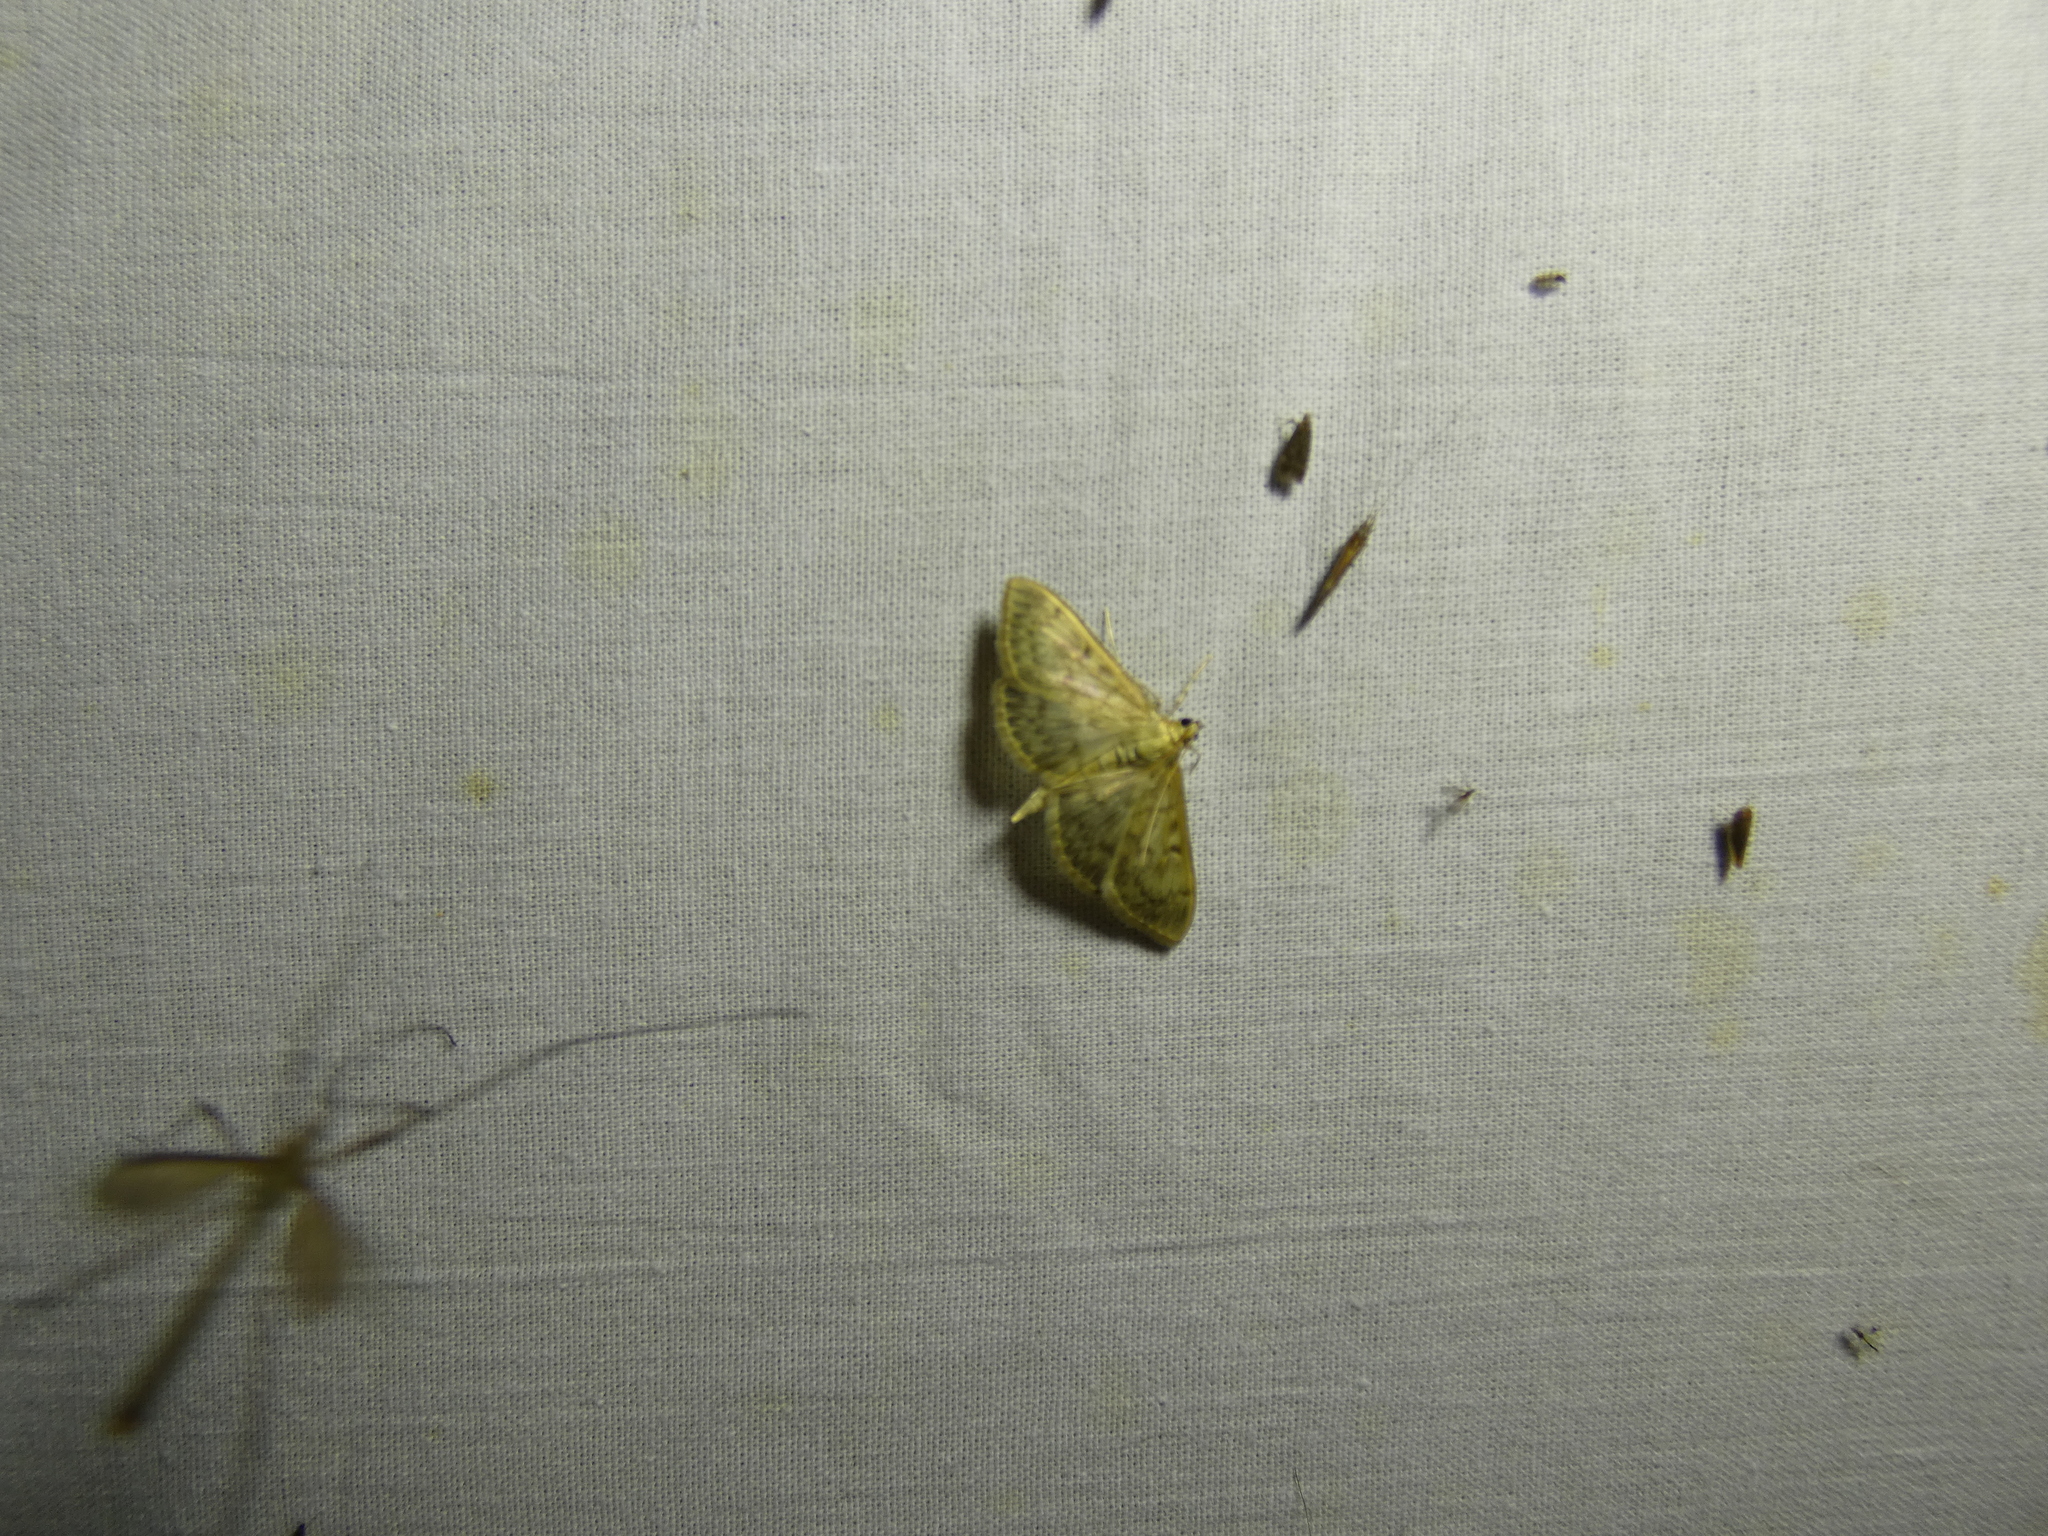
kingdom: Animalia
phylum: Arthropoda
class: Insecta
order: Lepidoptera
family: Crambidae
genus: Patania
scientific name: Patania ruralis
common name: Mother of pearl
